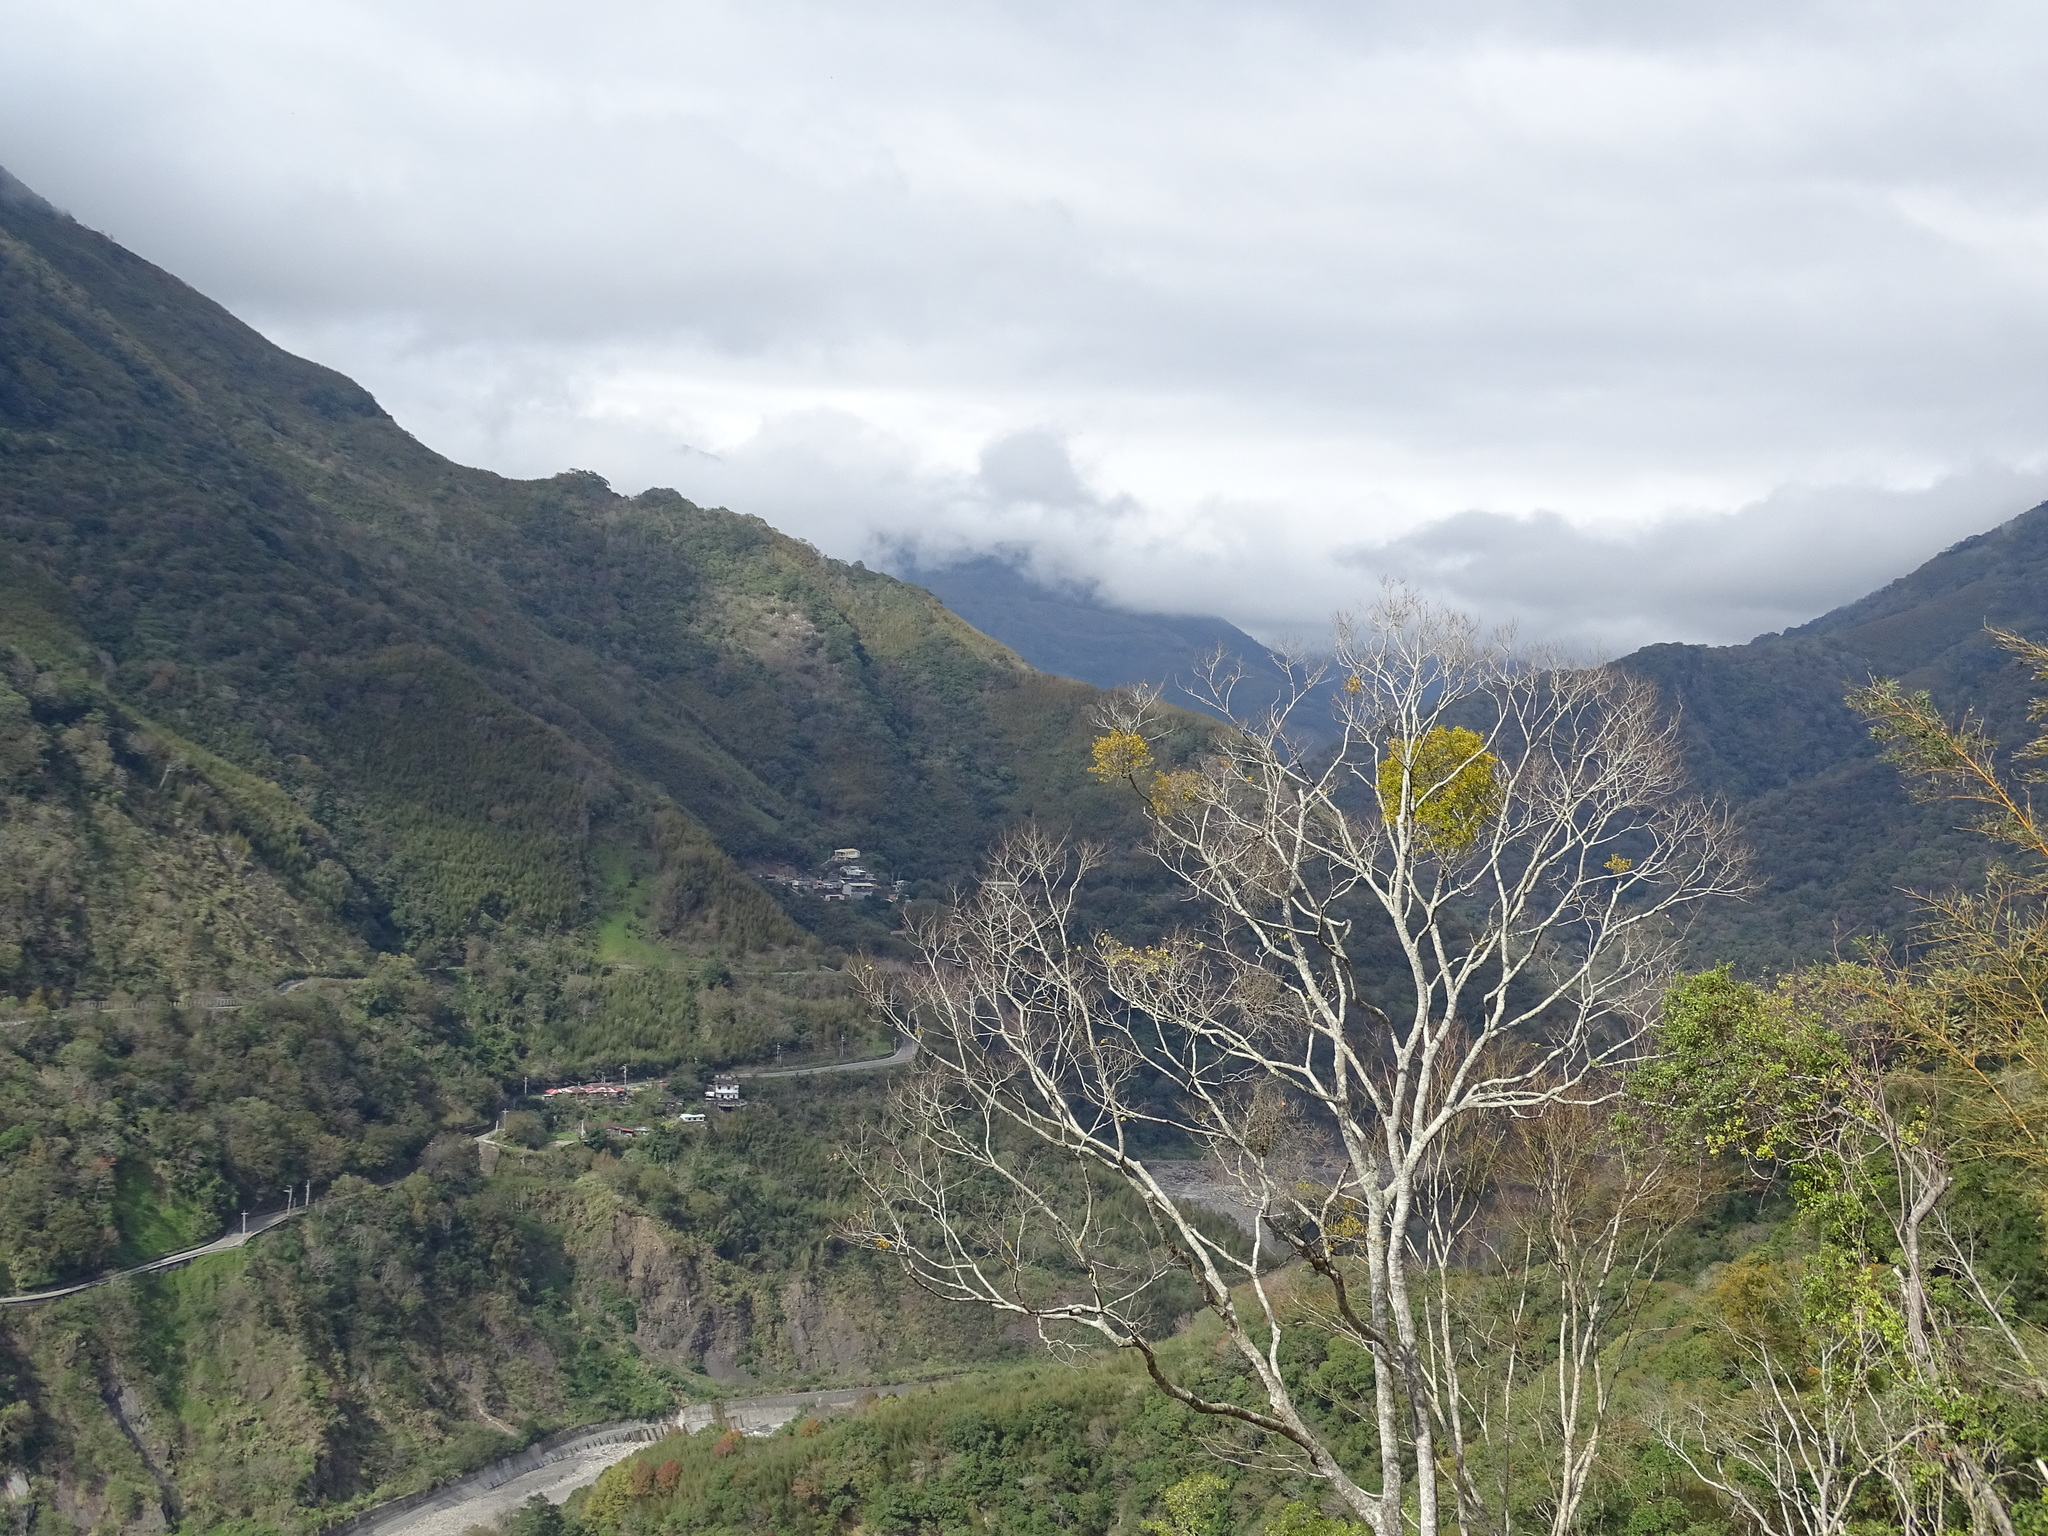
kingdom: Plantae
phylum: Tracheophyta
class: Magnoliopsida
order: Santalales
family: Viscaceae
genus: Viscum
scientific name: Viscum coloratum
